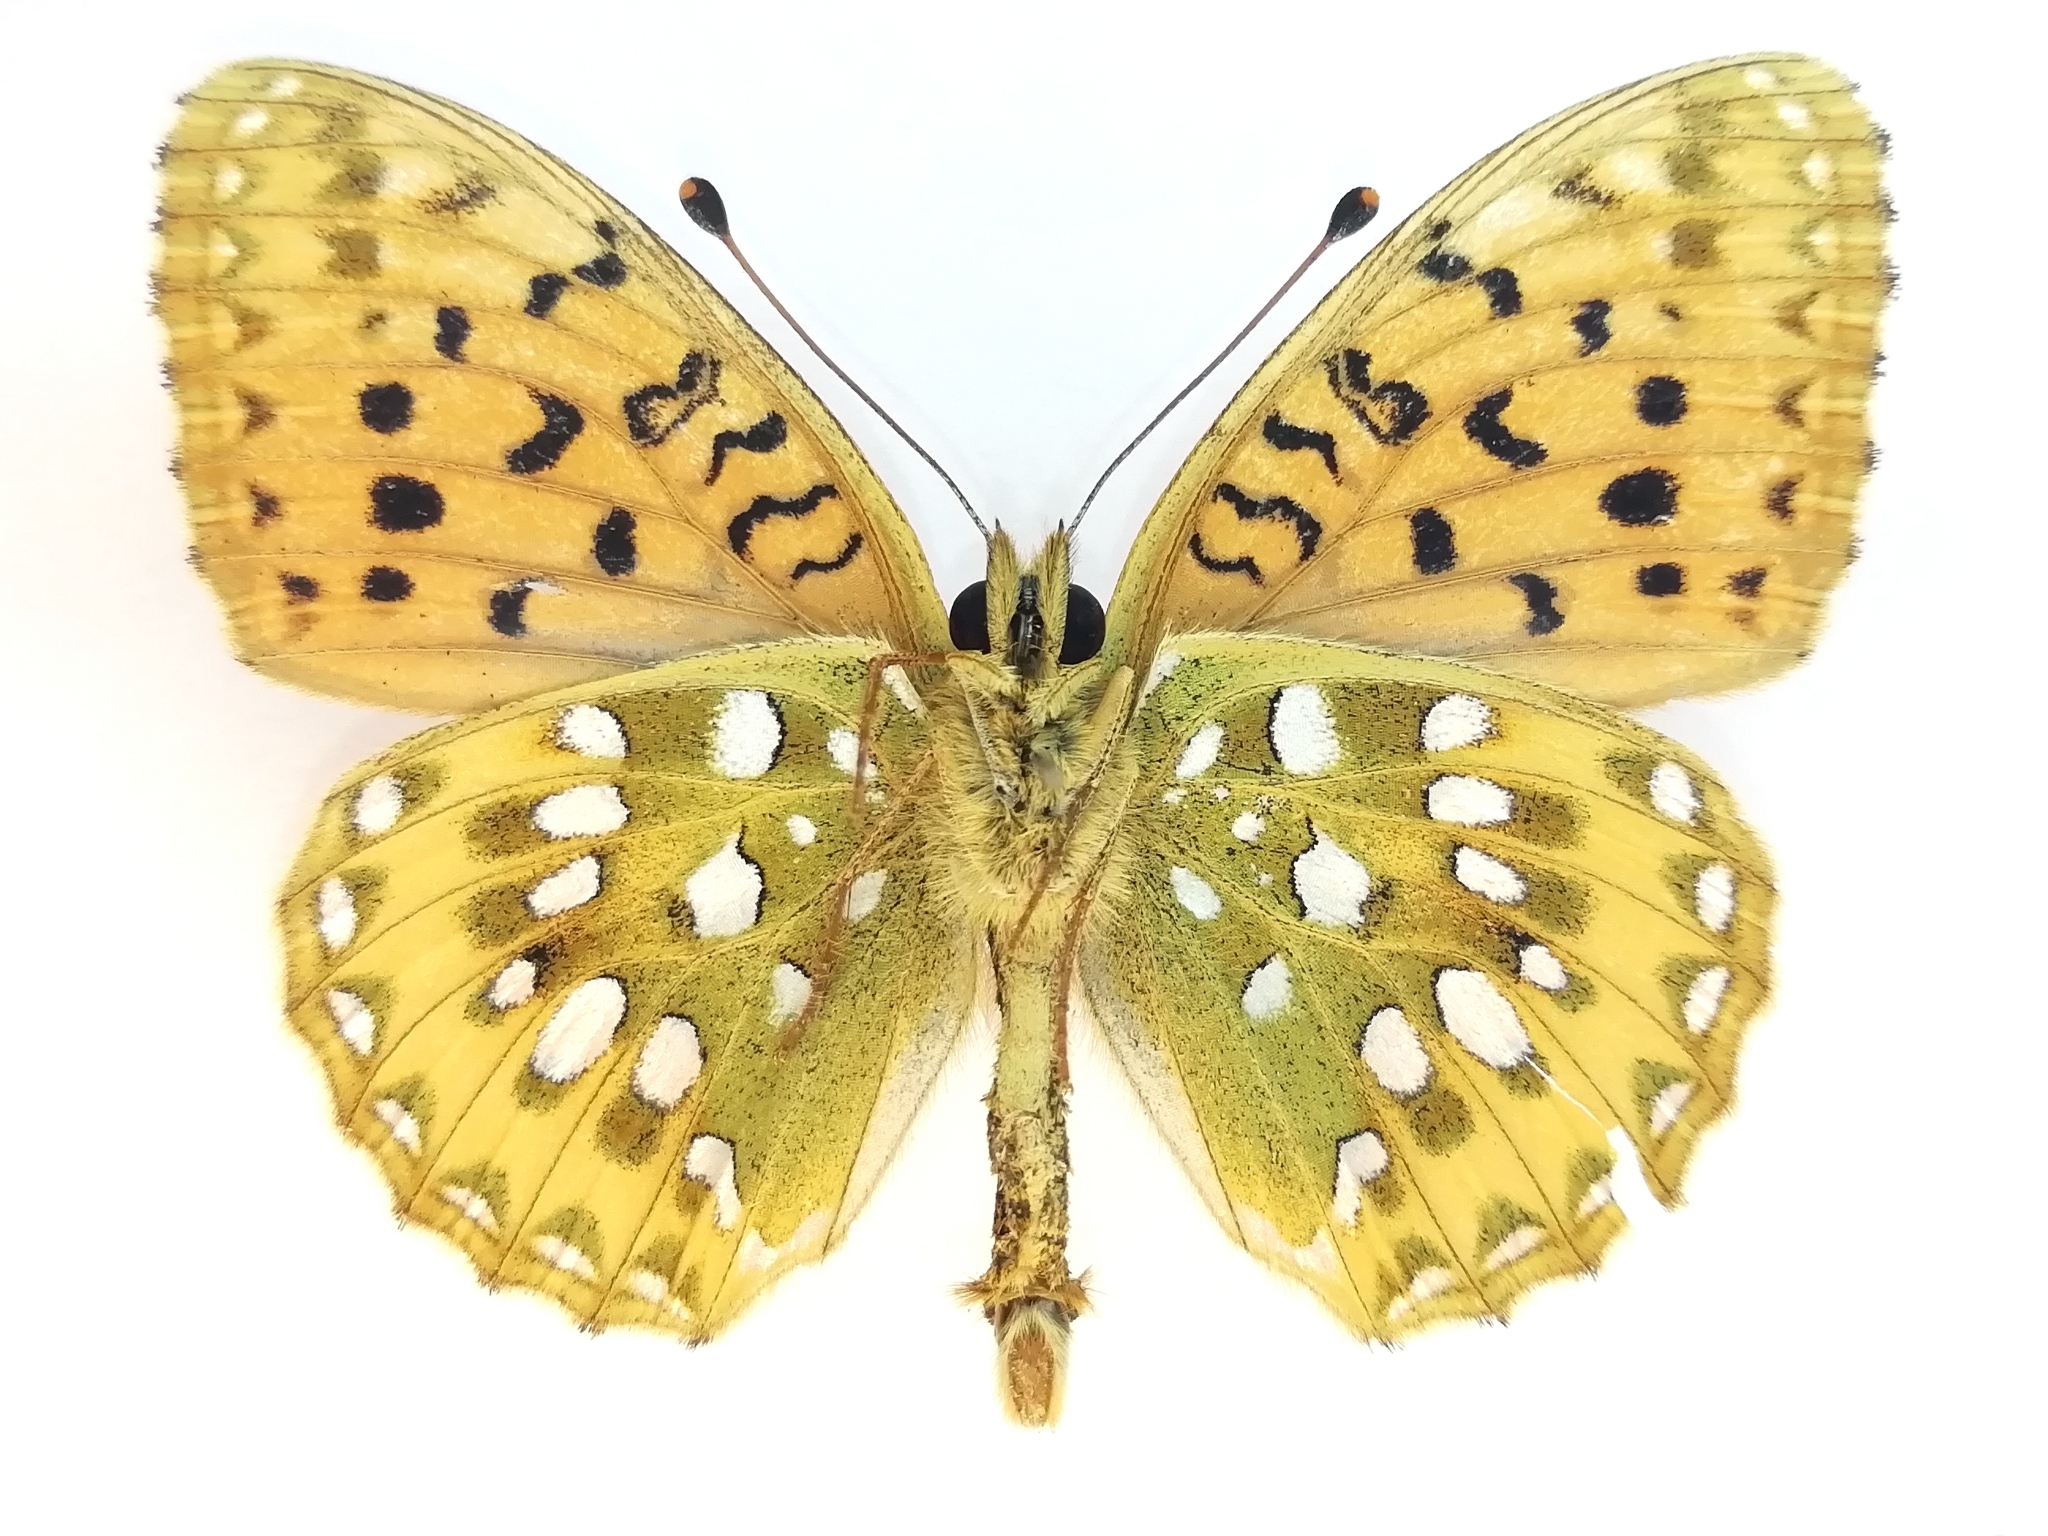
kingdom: Animalia
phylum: Arthropoda
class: Insecta
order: Lepidoptera
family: Nymphalidae
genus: Speyeria
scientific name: Speyeria aglaja
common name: Dark green fritillary
